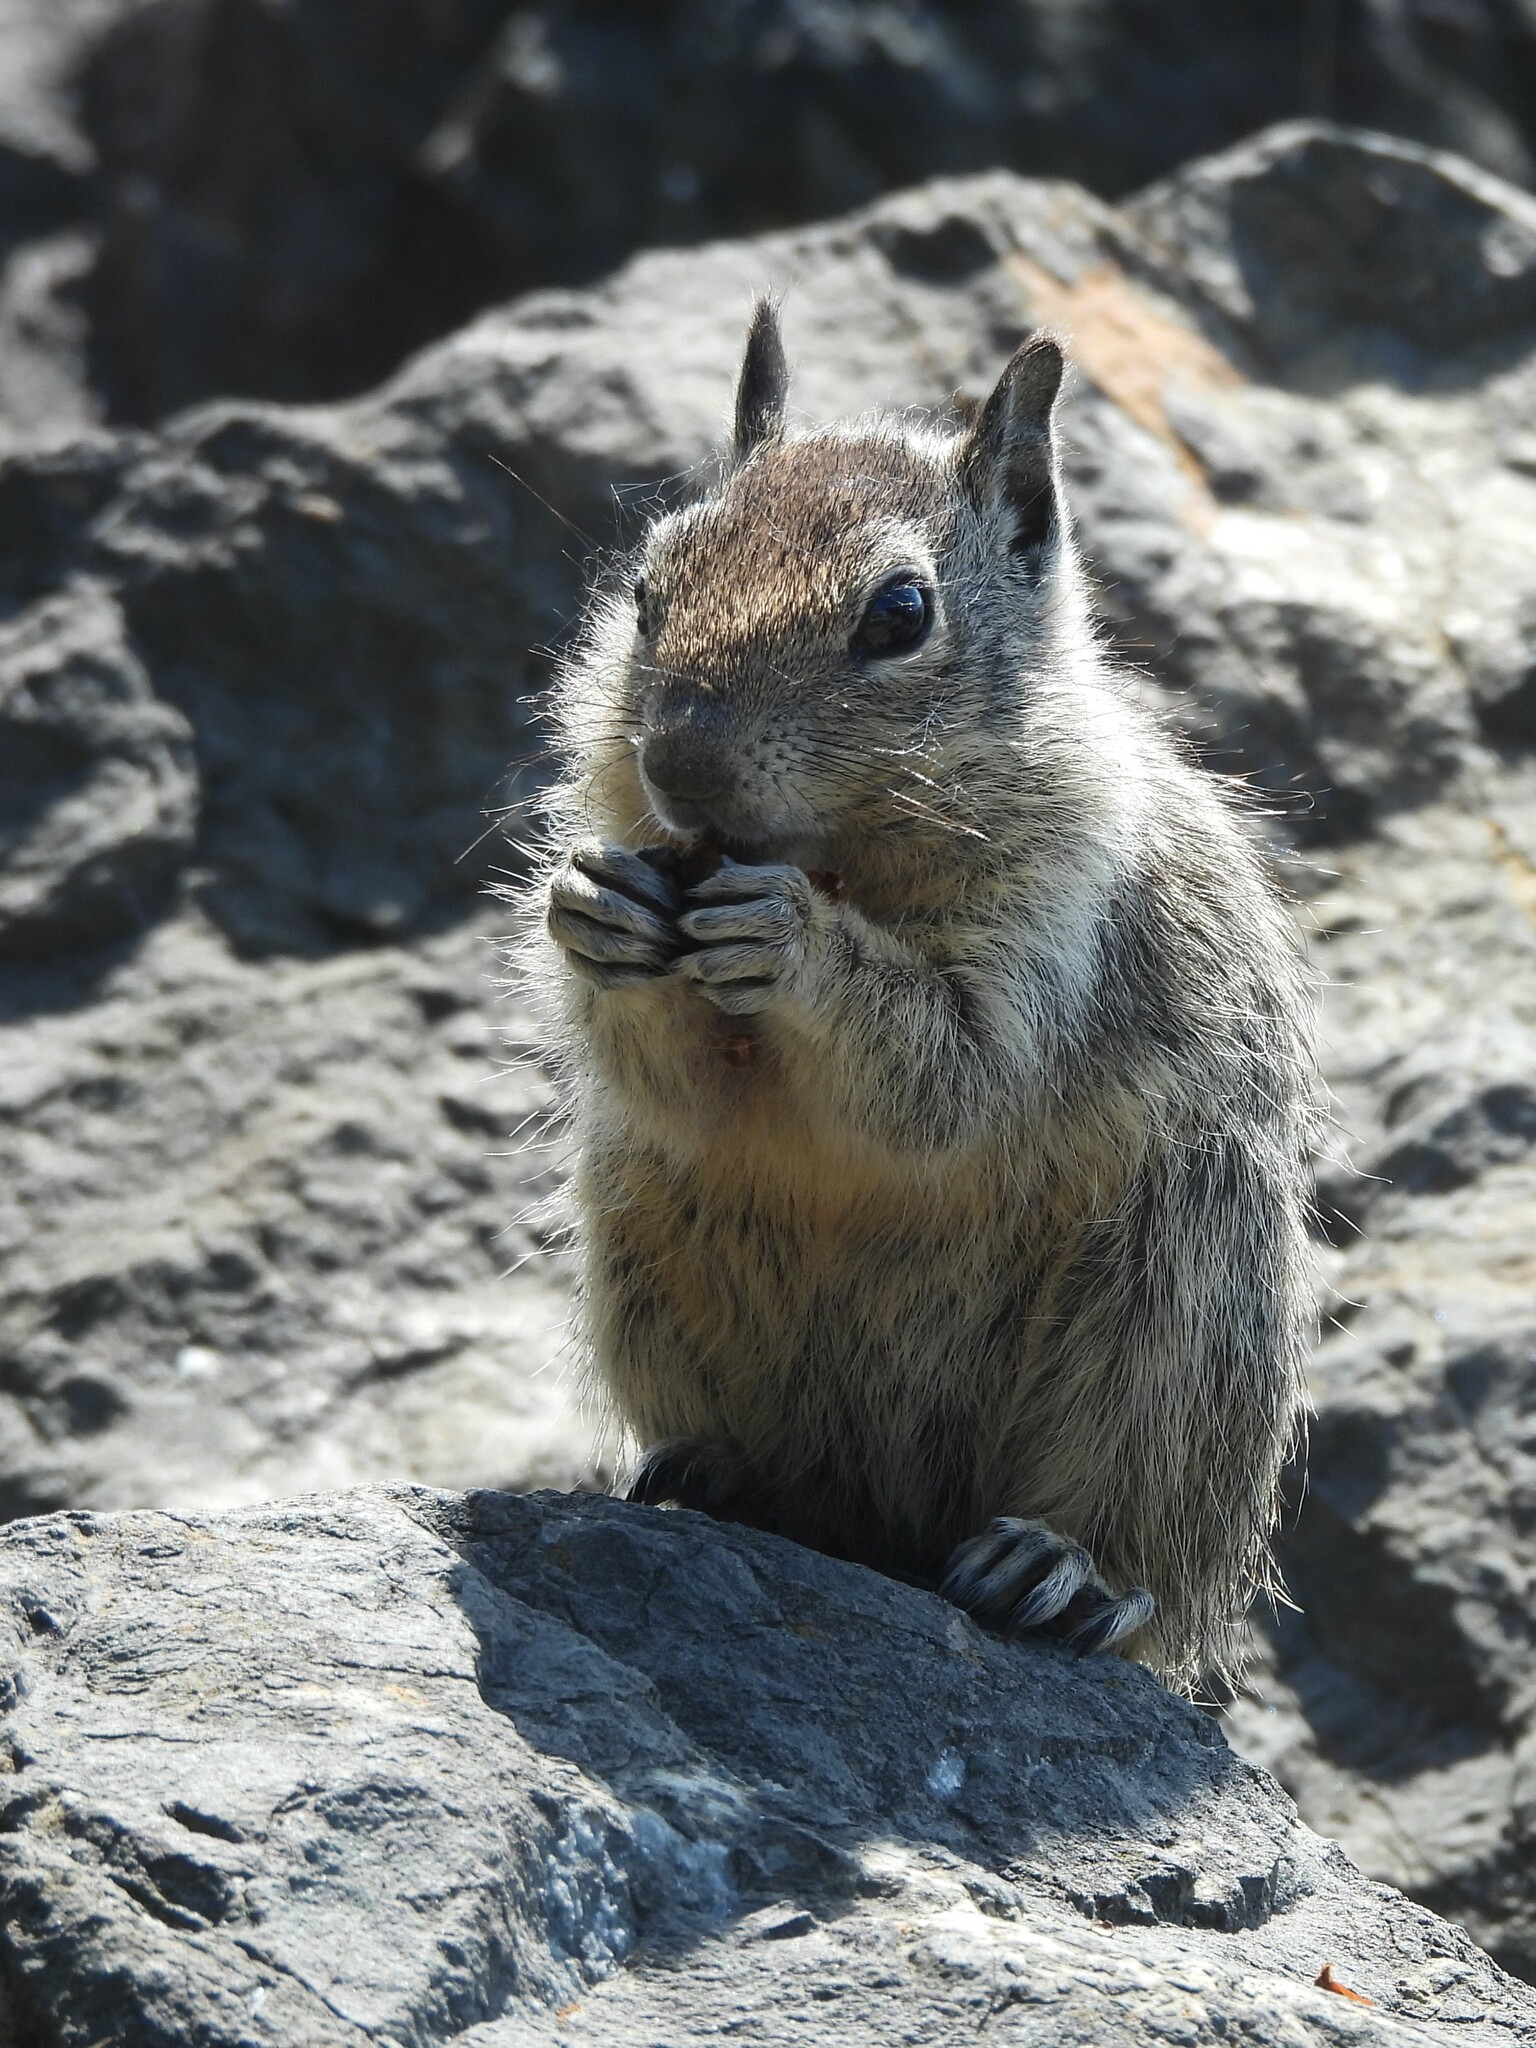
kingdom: Animalia
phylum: Chordata
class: Mammalia
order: Rodentia
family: Sciuridae
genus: Otospermophilus
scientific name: Otospermophilus beecheyi
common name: California ground squirrel
